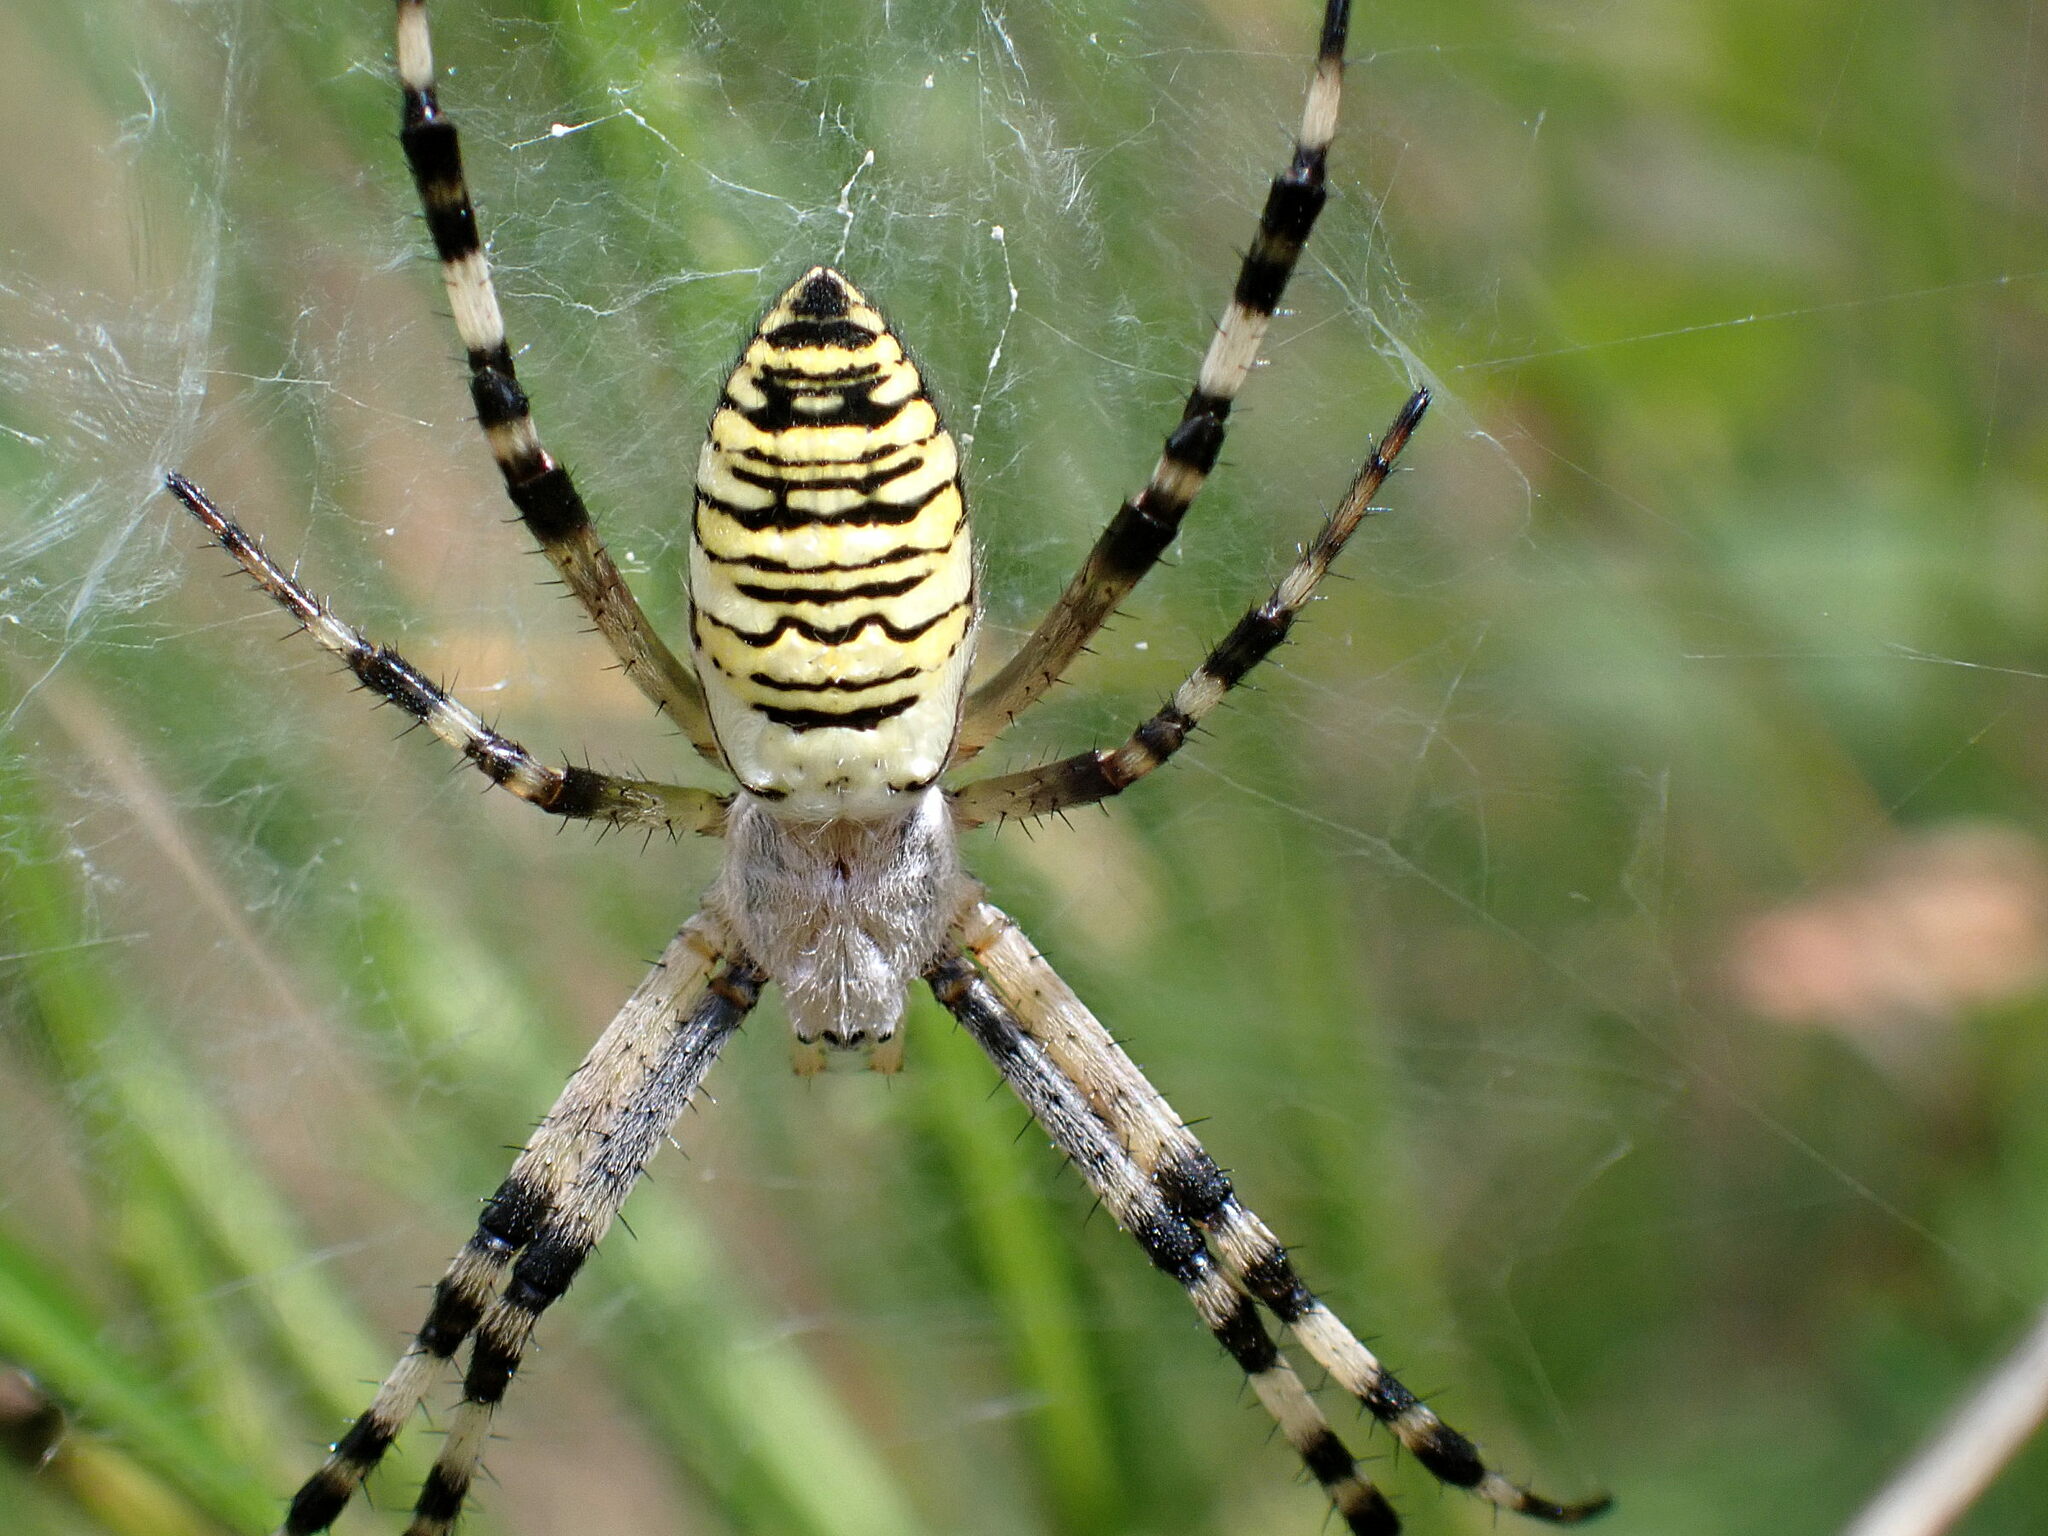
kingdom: Animalia
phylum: Arthropoda
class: Arachnida
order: Araneae
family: Araneidae
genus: Argiope
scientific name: Argiope bruennichi
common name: Wasp spider
